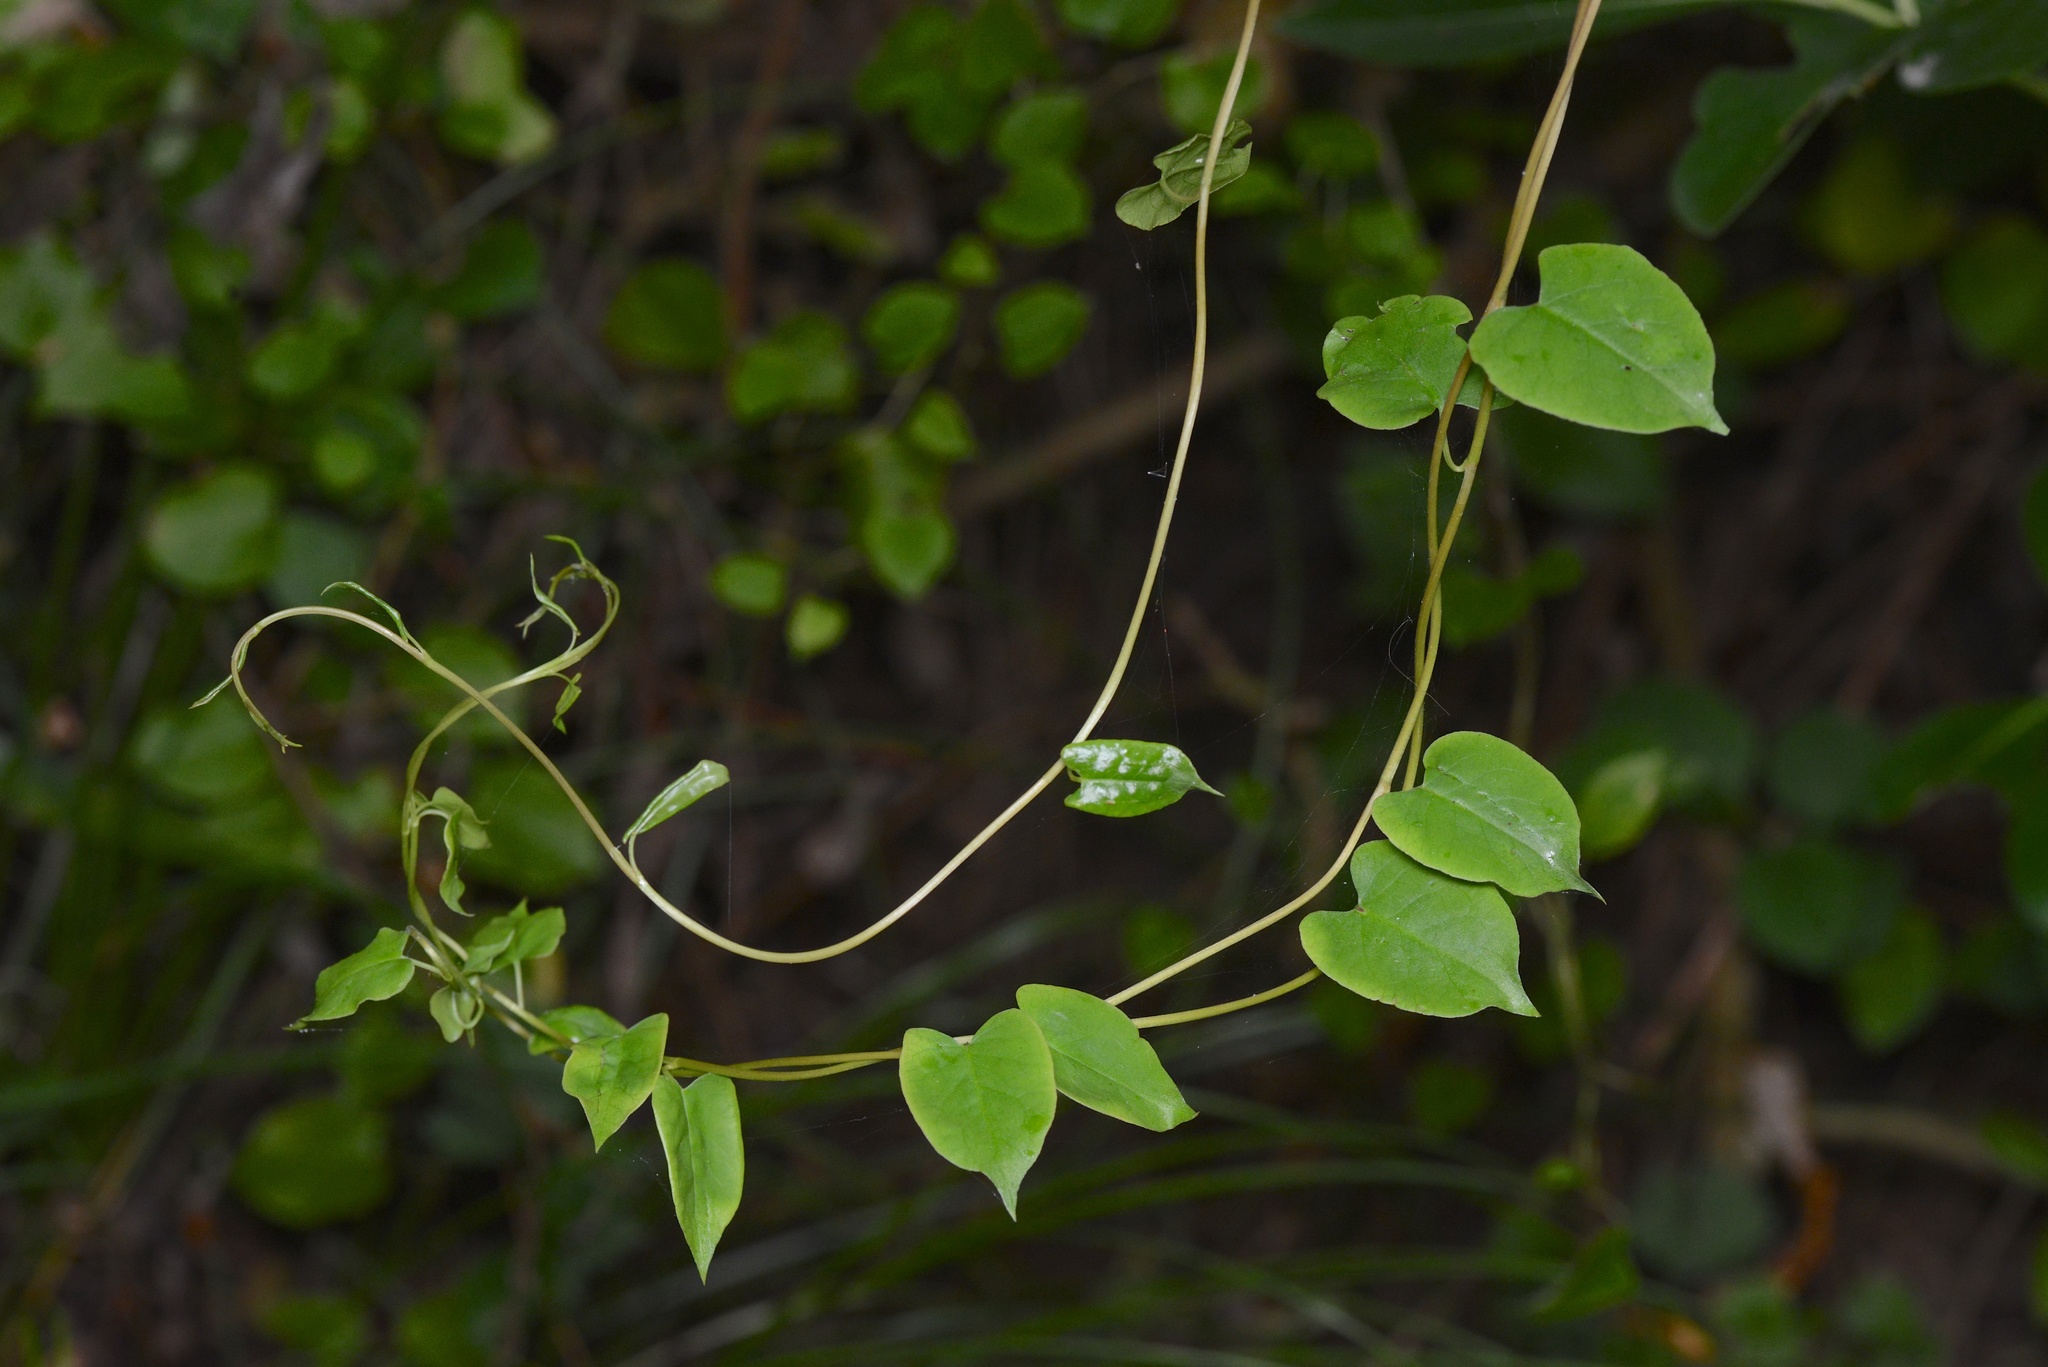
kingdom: Plantae
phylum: Tracheophyta
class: Magnoliopsida
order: Caryophyllales
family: Polygonaceae
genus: Muehlenbeckia
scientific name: Muehlenbeckia australis
